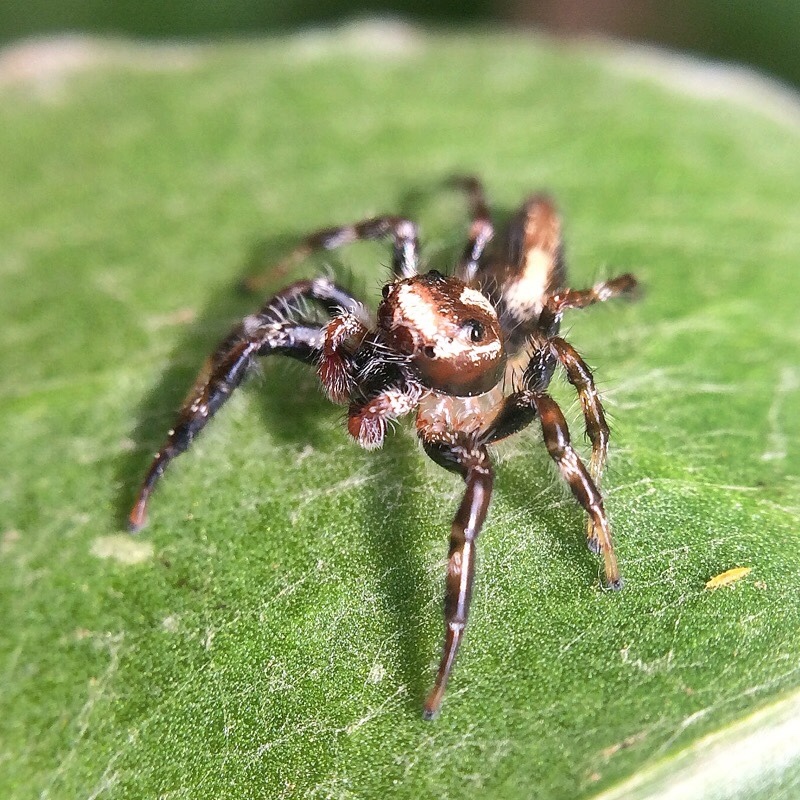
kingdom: Animalia
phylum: Arthropoda
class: Arachnida
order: Araneae
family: Salticidae
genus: Thyene
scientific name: Thyene coccineovittata
